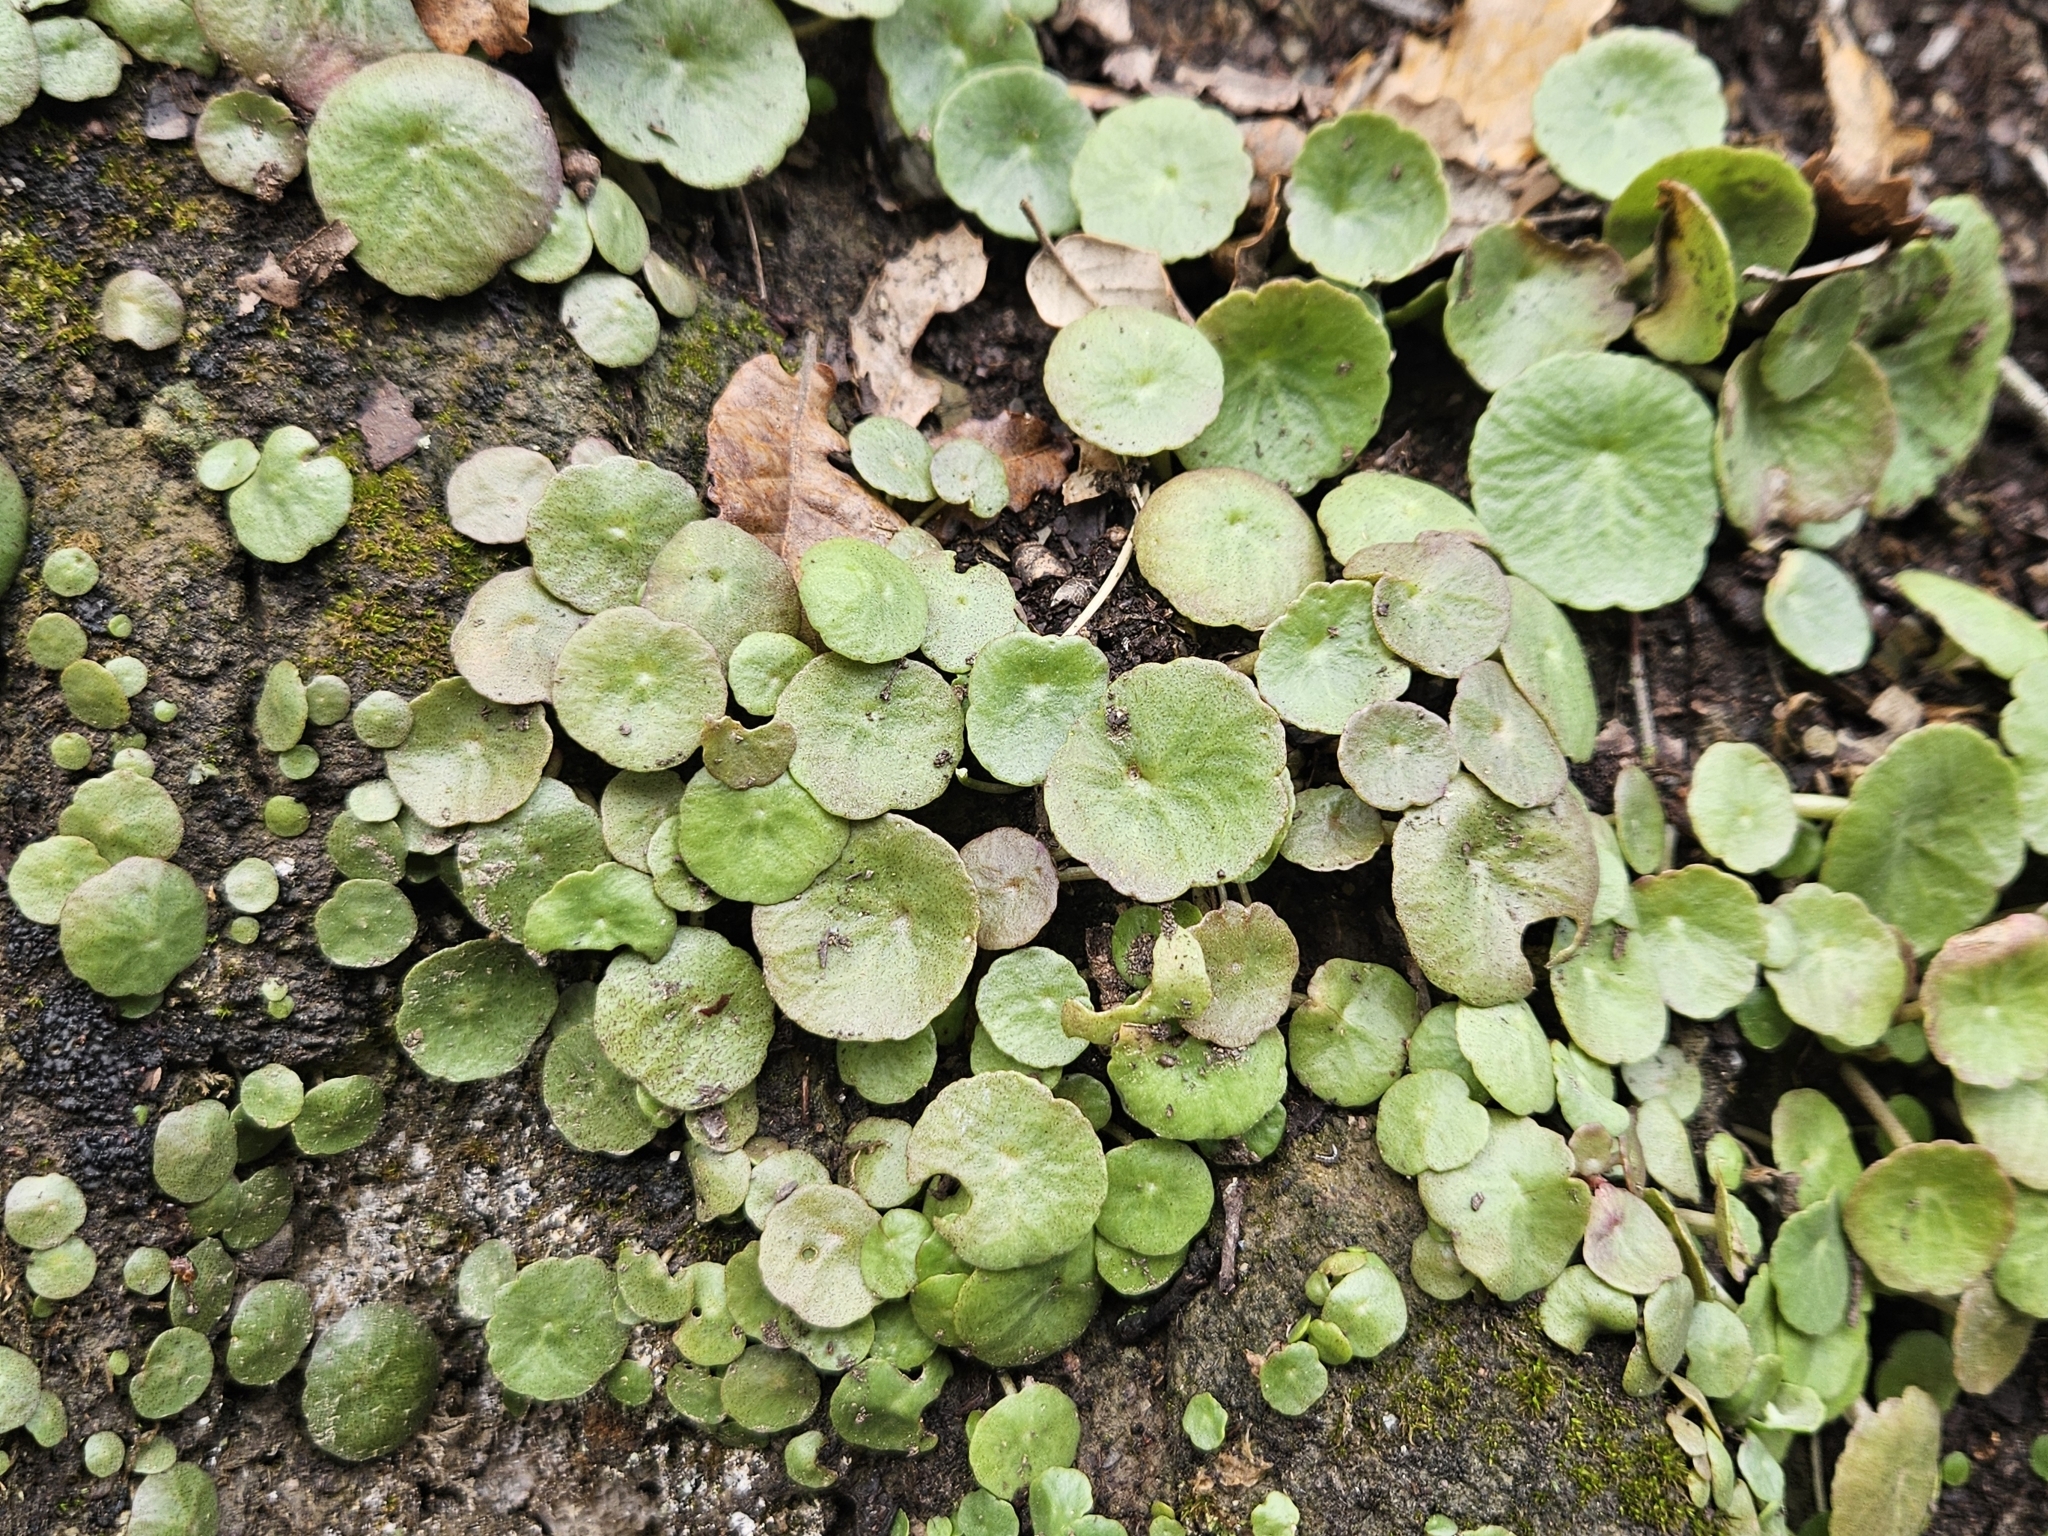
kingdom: Plantae
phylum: Tracheophyta
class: Magnoliopsida
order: Saxifragales
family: Crassulaceae
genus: Umbilicus
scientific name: Umbilicus rupestris
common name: Navelwort
